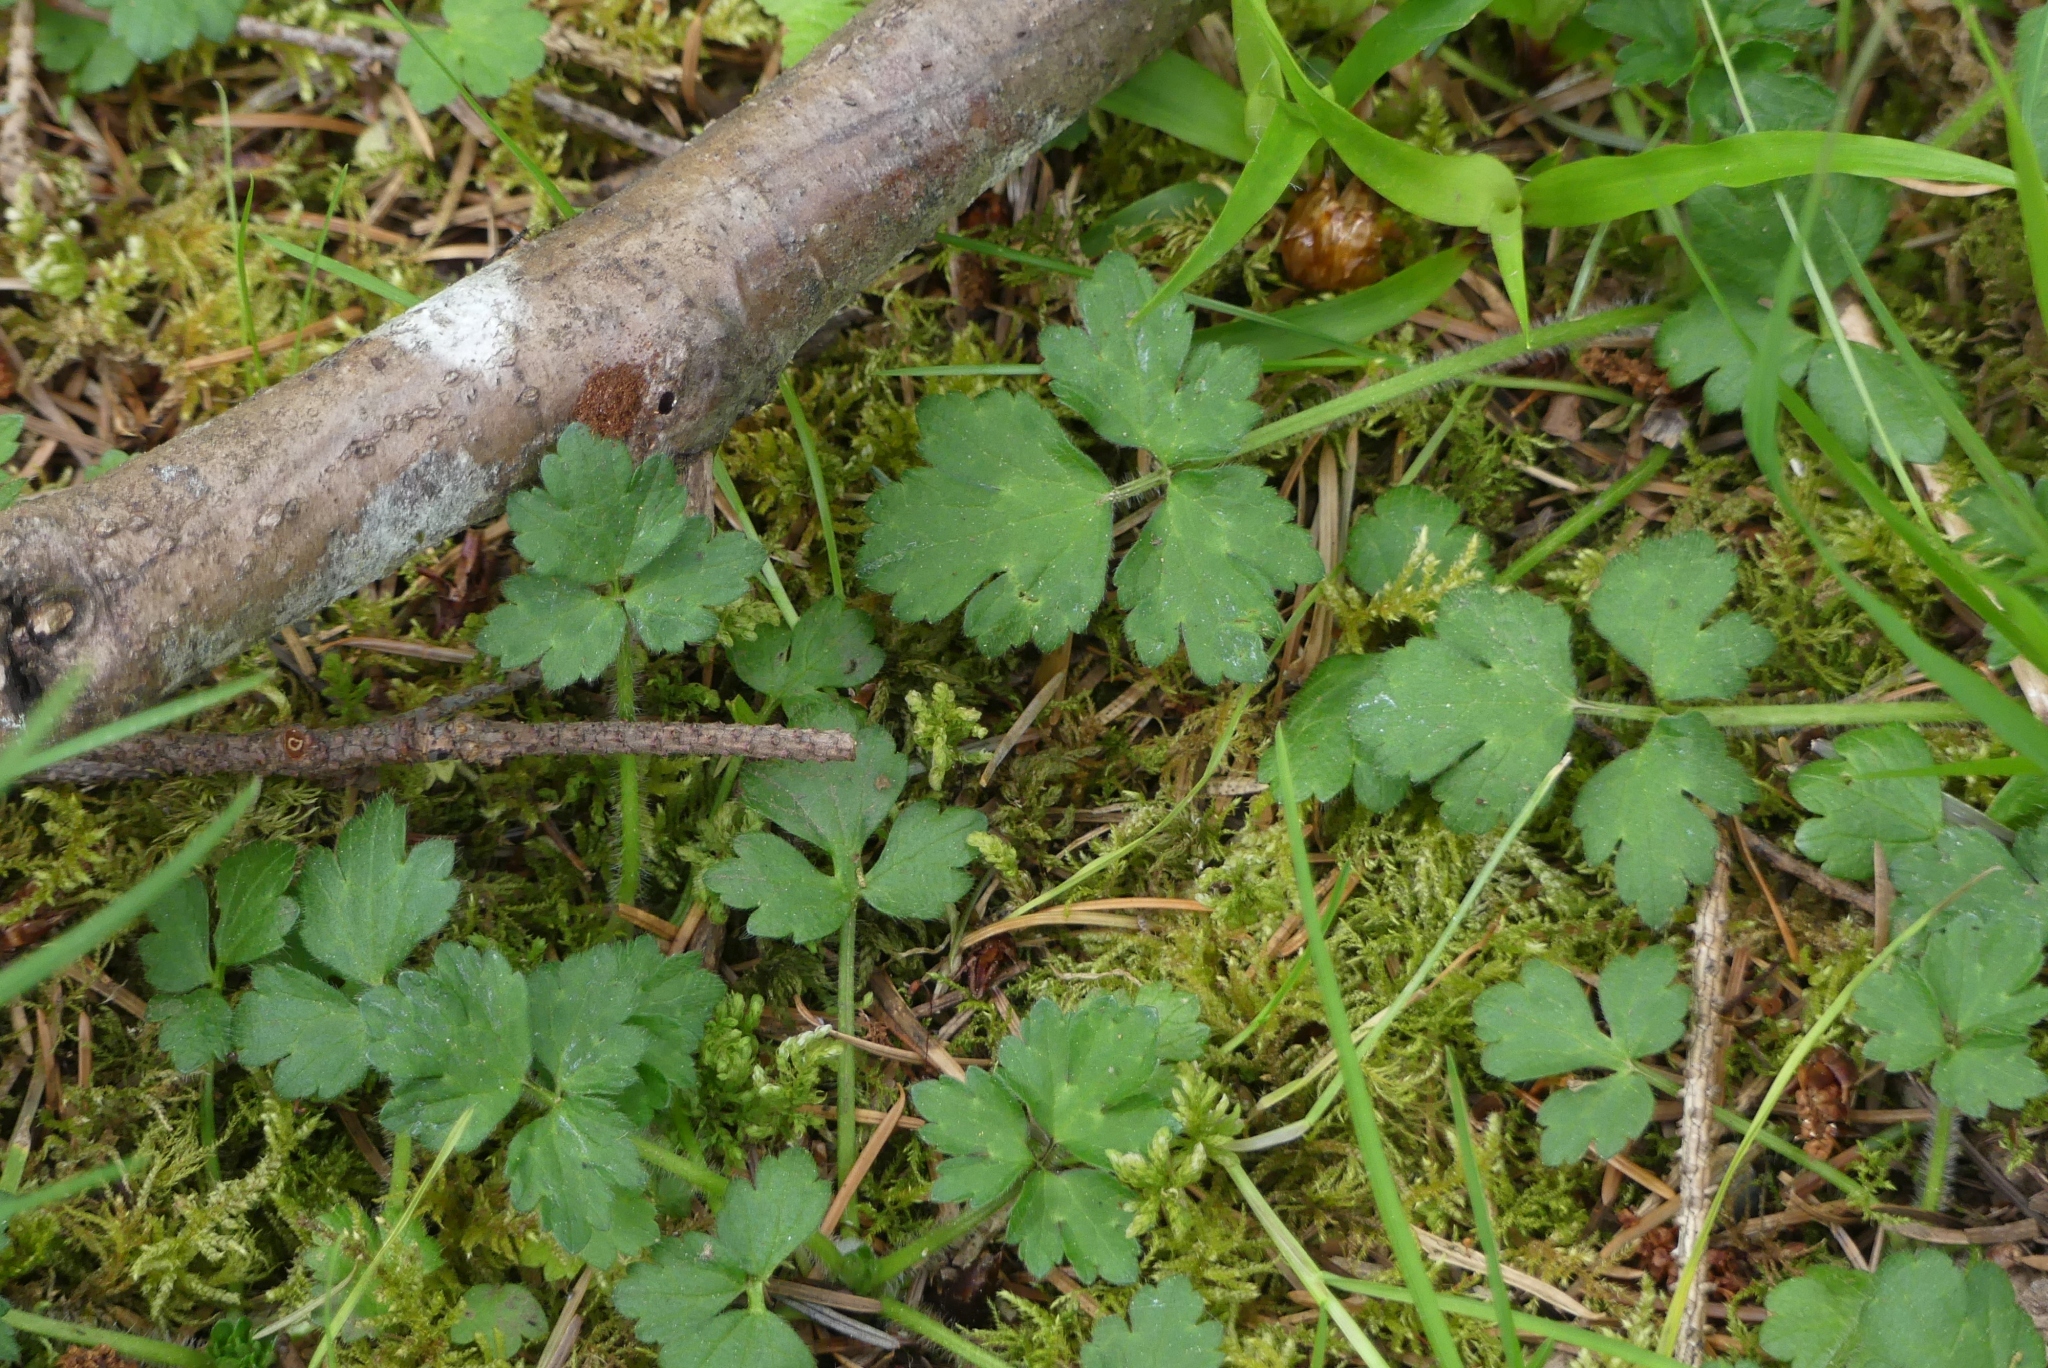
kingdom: Plantae
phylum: Tracheophyta
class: Magnoliopsida
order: Ranunculales
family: Ranunculaceae
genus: Ranunculus
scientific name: Ranunculus repens
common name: Creeping buttercup
